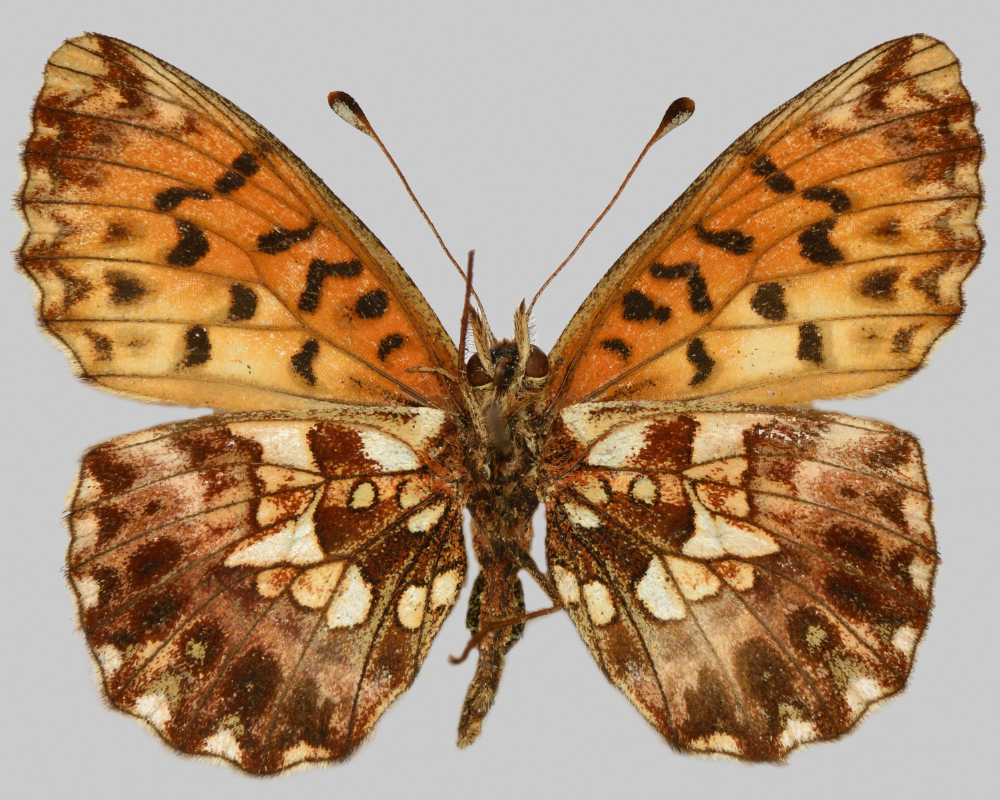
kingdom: Animalia
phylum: Arthropoda
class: Insecta
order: Lepidoptera
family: Nymphalidae
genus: Boloria
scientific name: Boloria dia
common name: Weaver's fritillary
